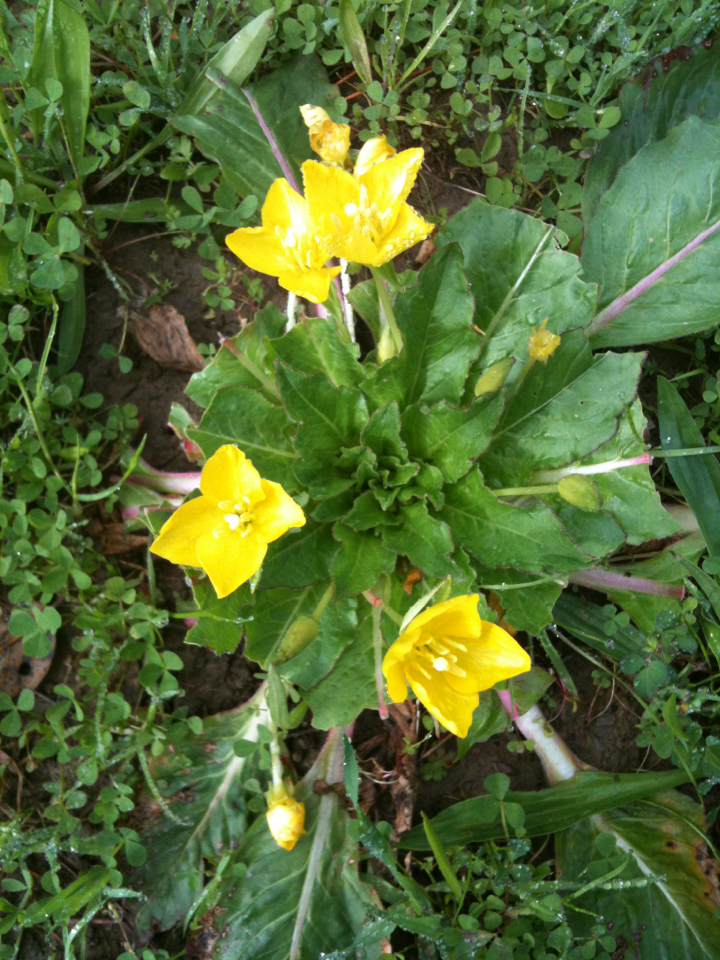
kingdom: Plantae
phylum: Tracheophyta
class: Magnoliopsida
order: Myrtales
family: Onagraceae
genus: Taraxia
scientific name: Taraxia ovata
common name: Goldeneggs
